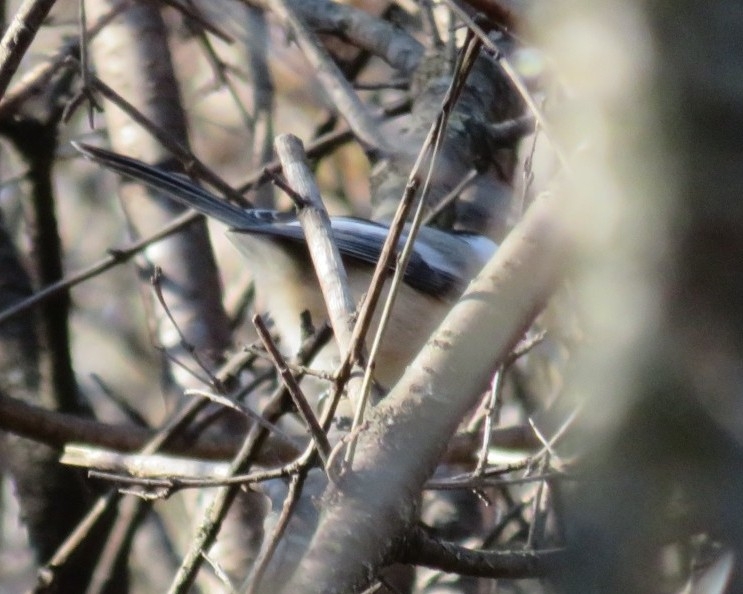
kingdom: Animalia
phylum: Chordata
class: Aves
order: Passeriformes
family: Paridae
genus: Poecile
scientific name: Poecile atricapillus
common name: Black-capped chickadee
